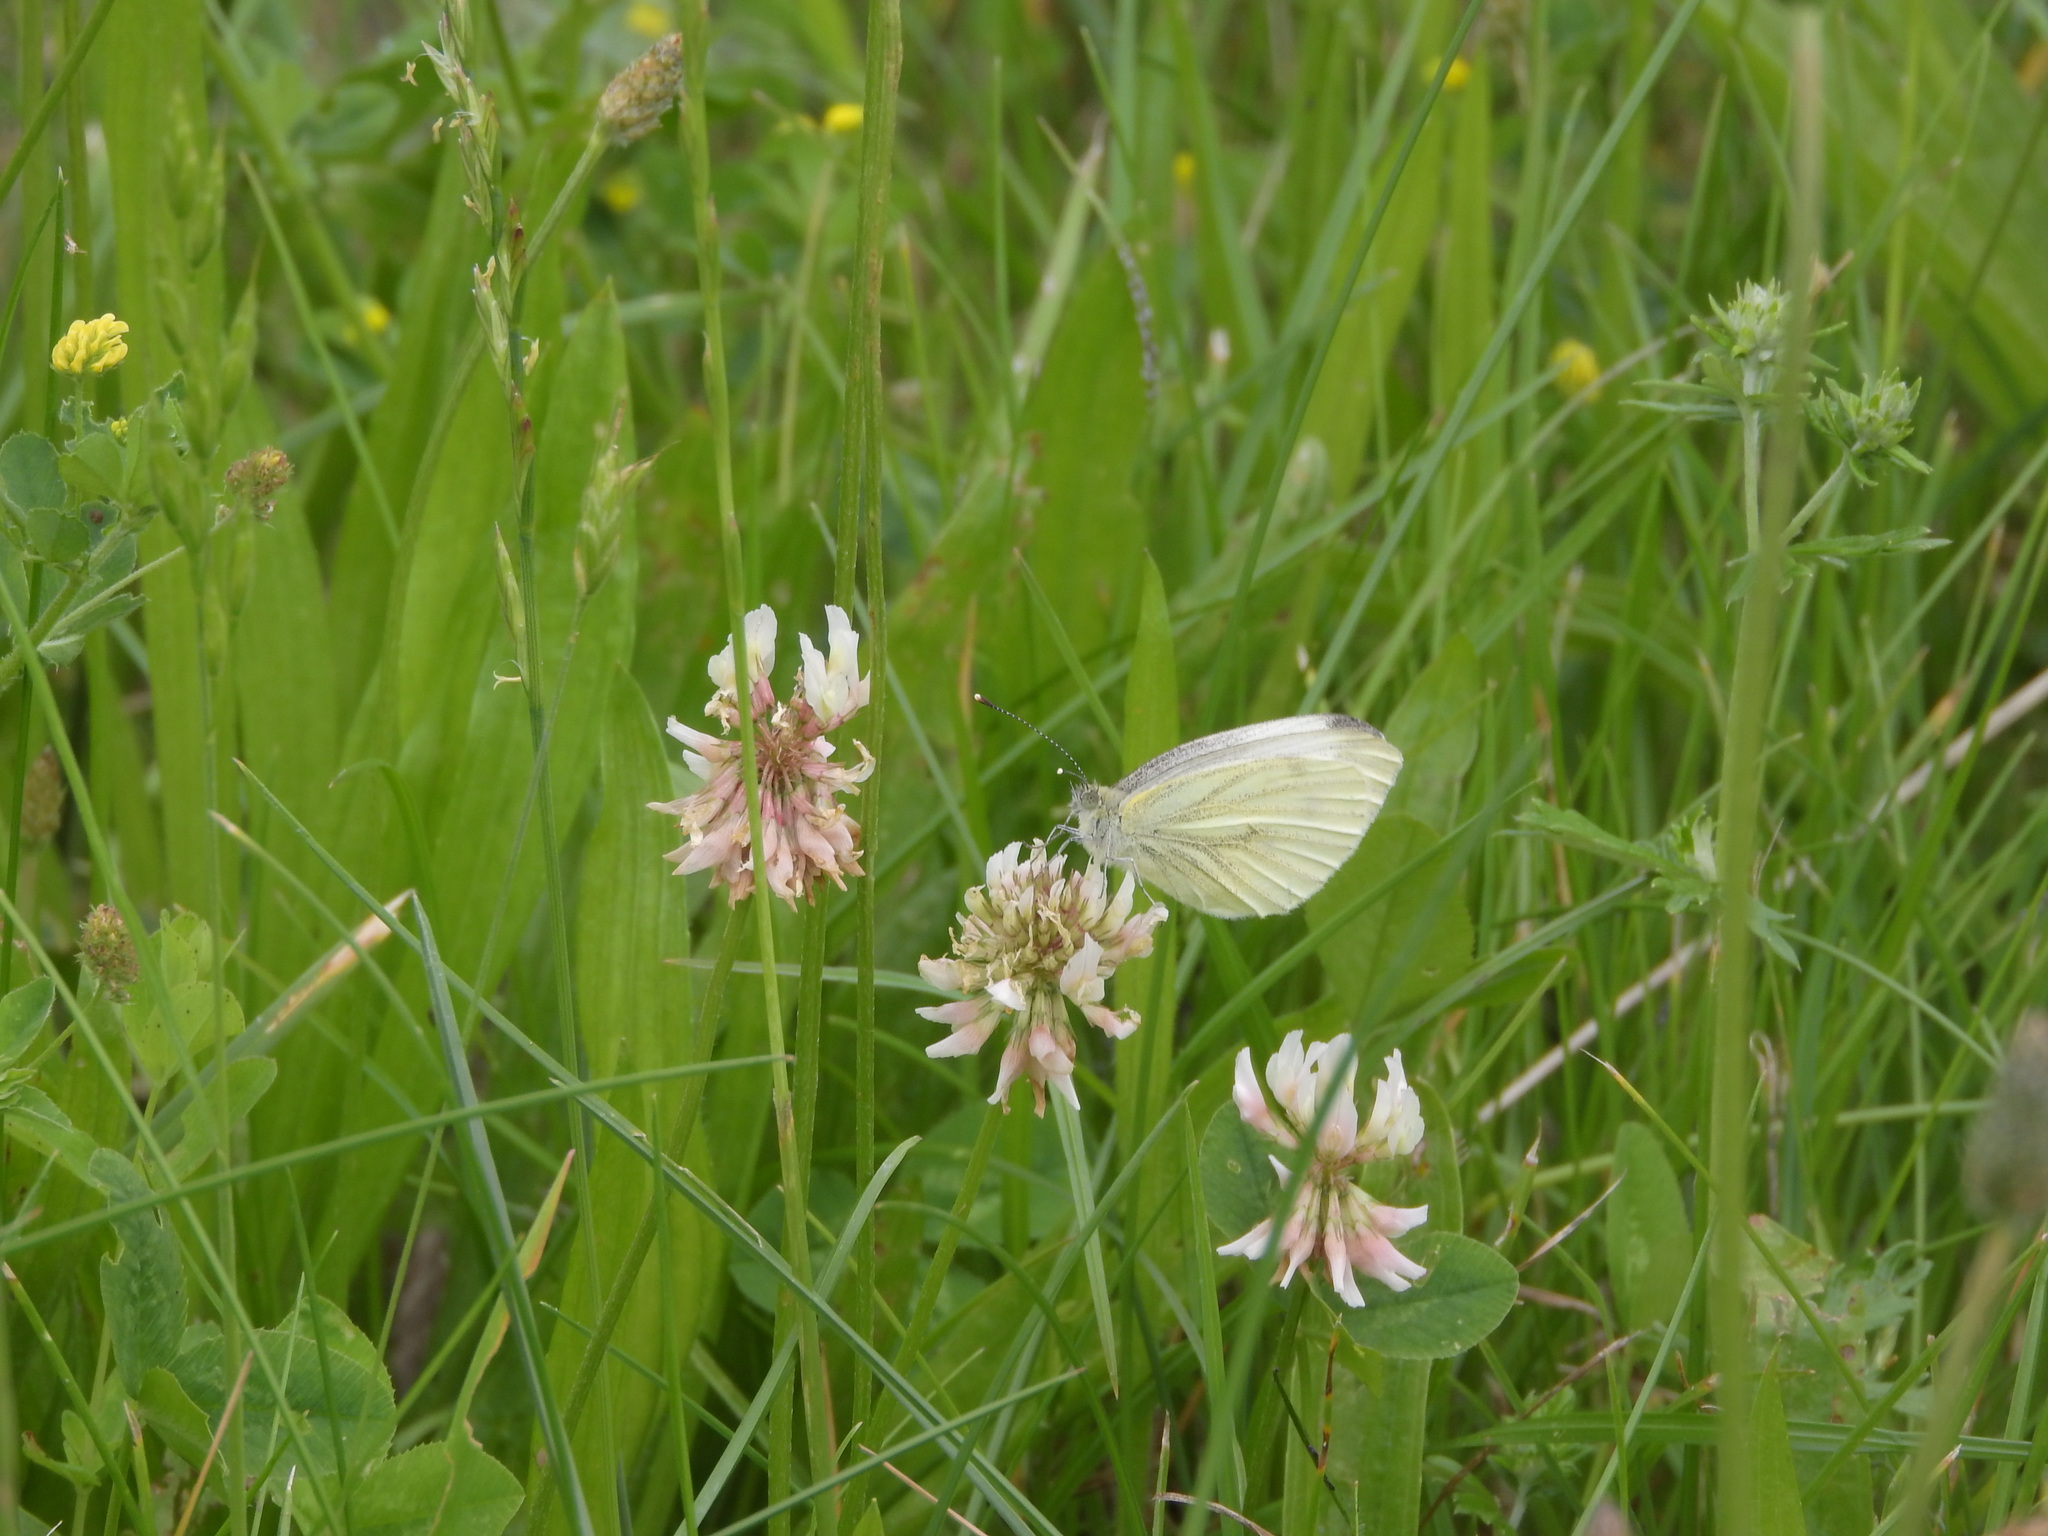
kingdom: Animalia
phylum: Arthropoda
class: Insecta
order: Lepidoptera
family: Pieridae
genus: Pieris
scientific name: Pieris napi
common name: Green-veined white
